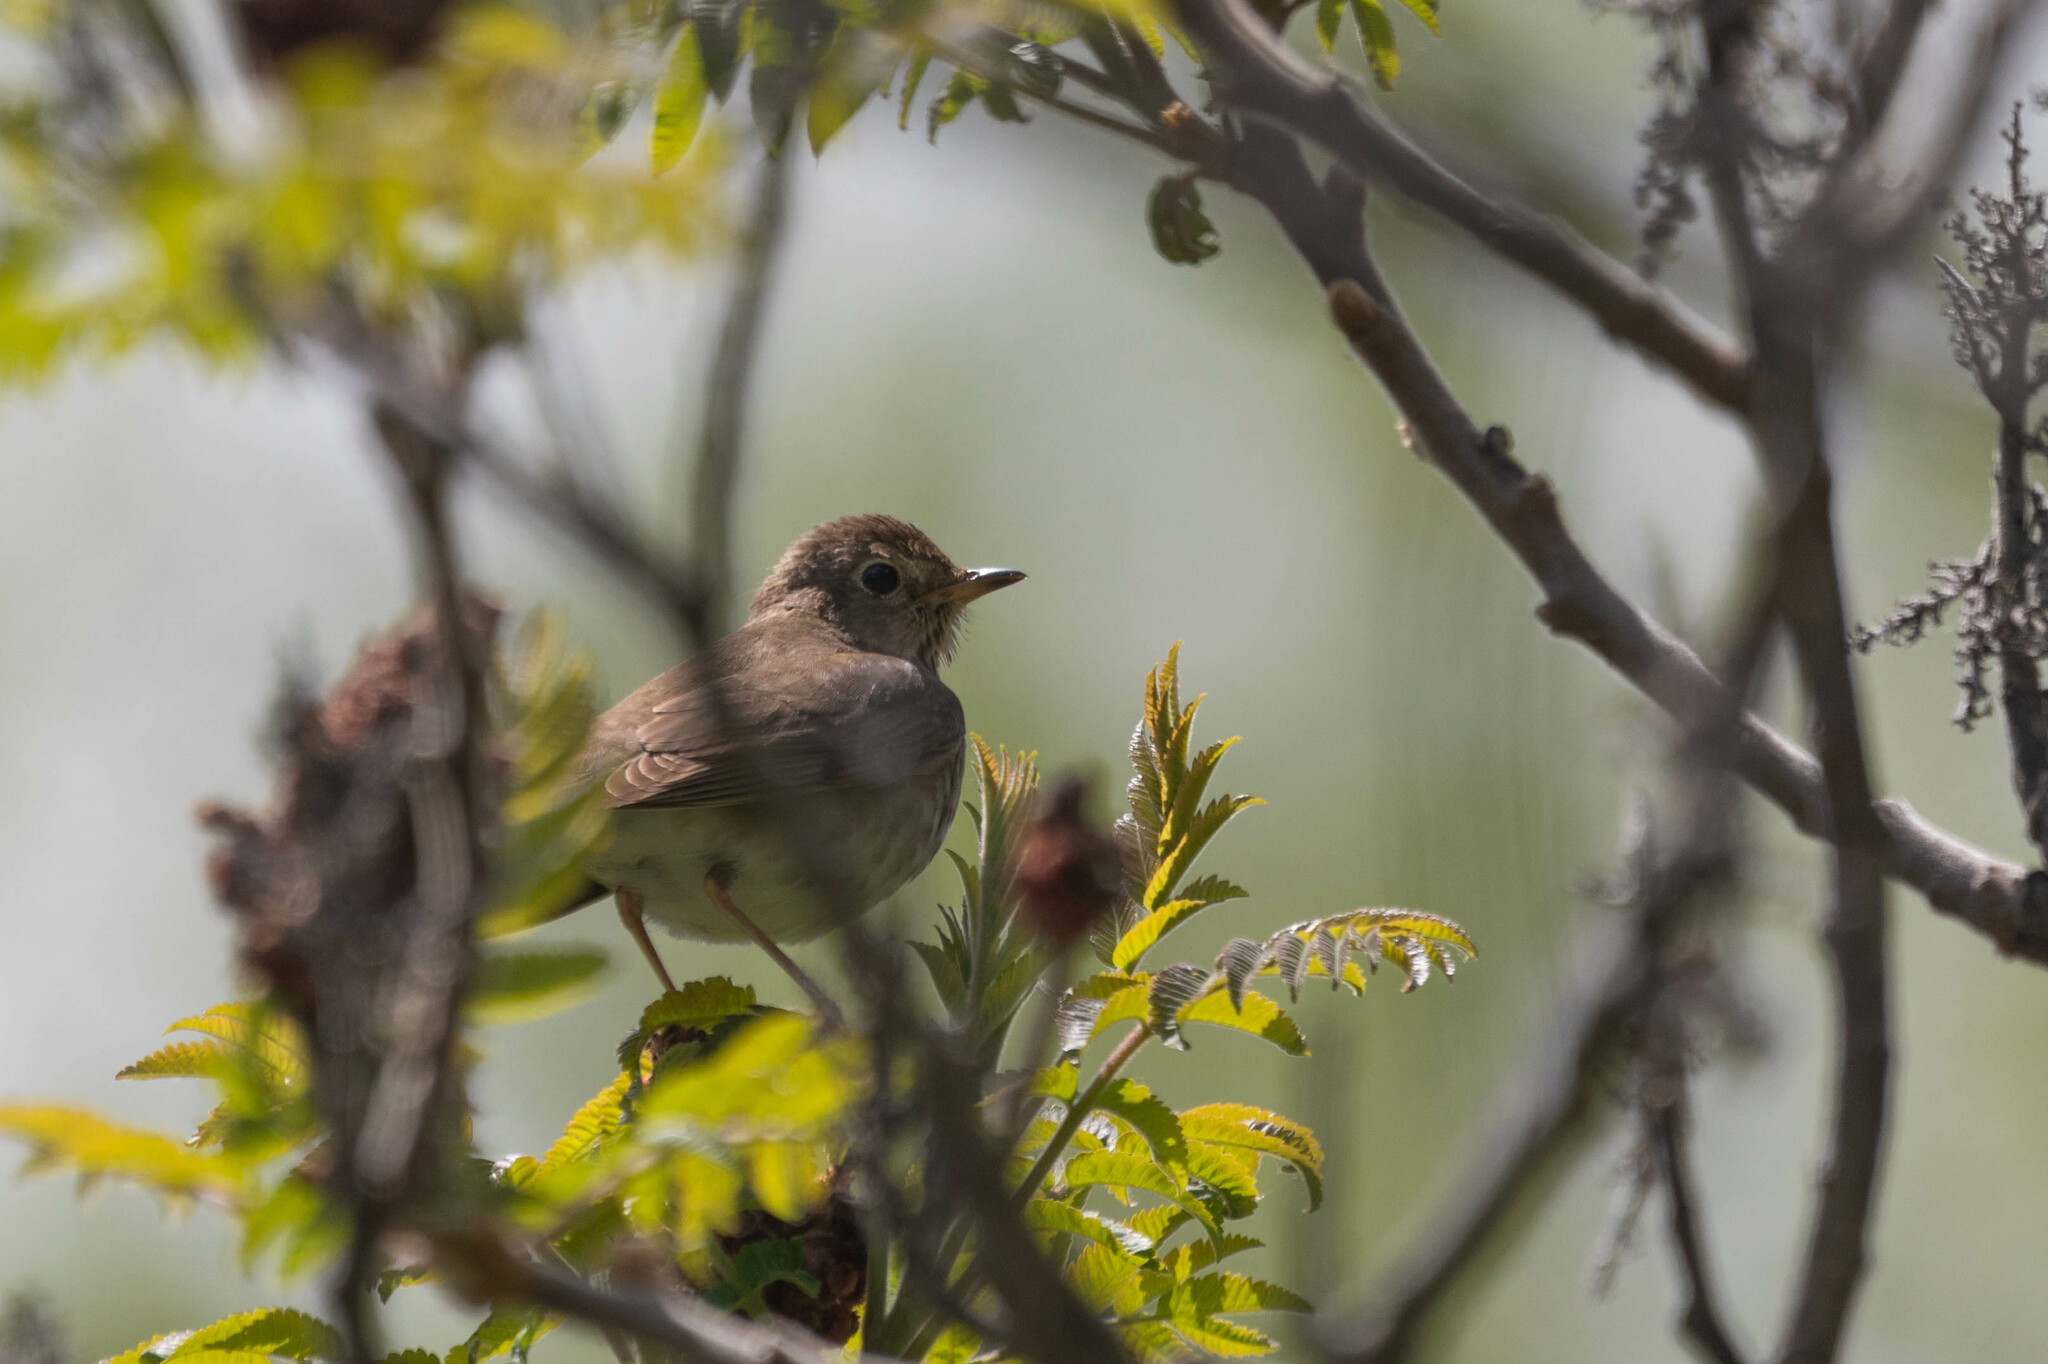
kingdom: Animalia
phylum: Chordata
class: Aves
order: Passeriformes
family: Turdidae
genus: Catharus
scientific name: Catharus ustulatus
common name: Swainson's thrush
